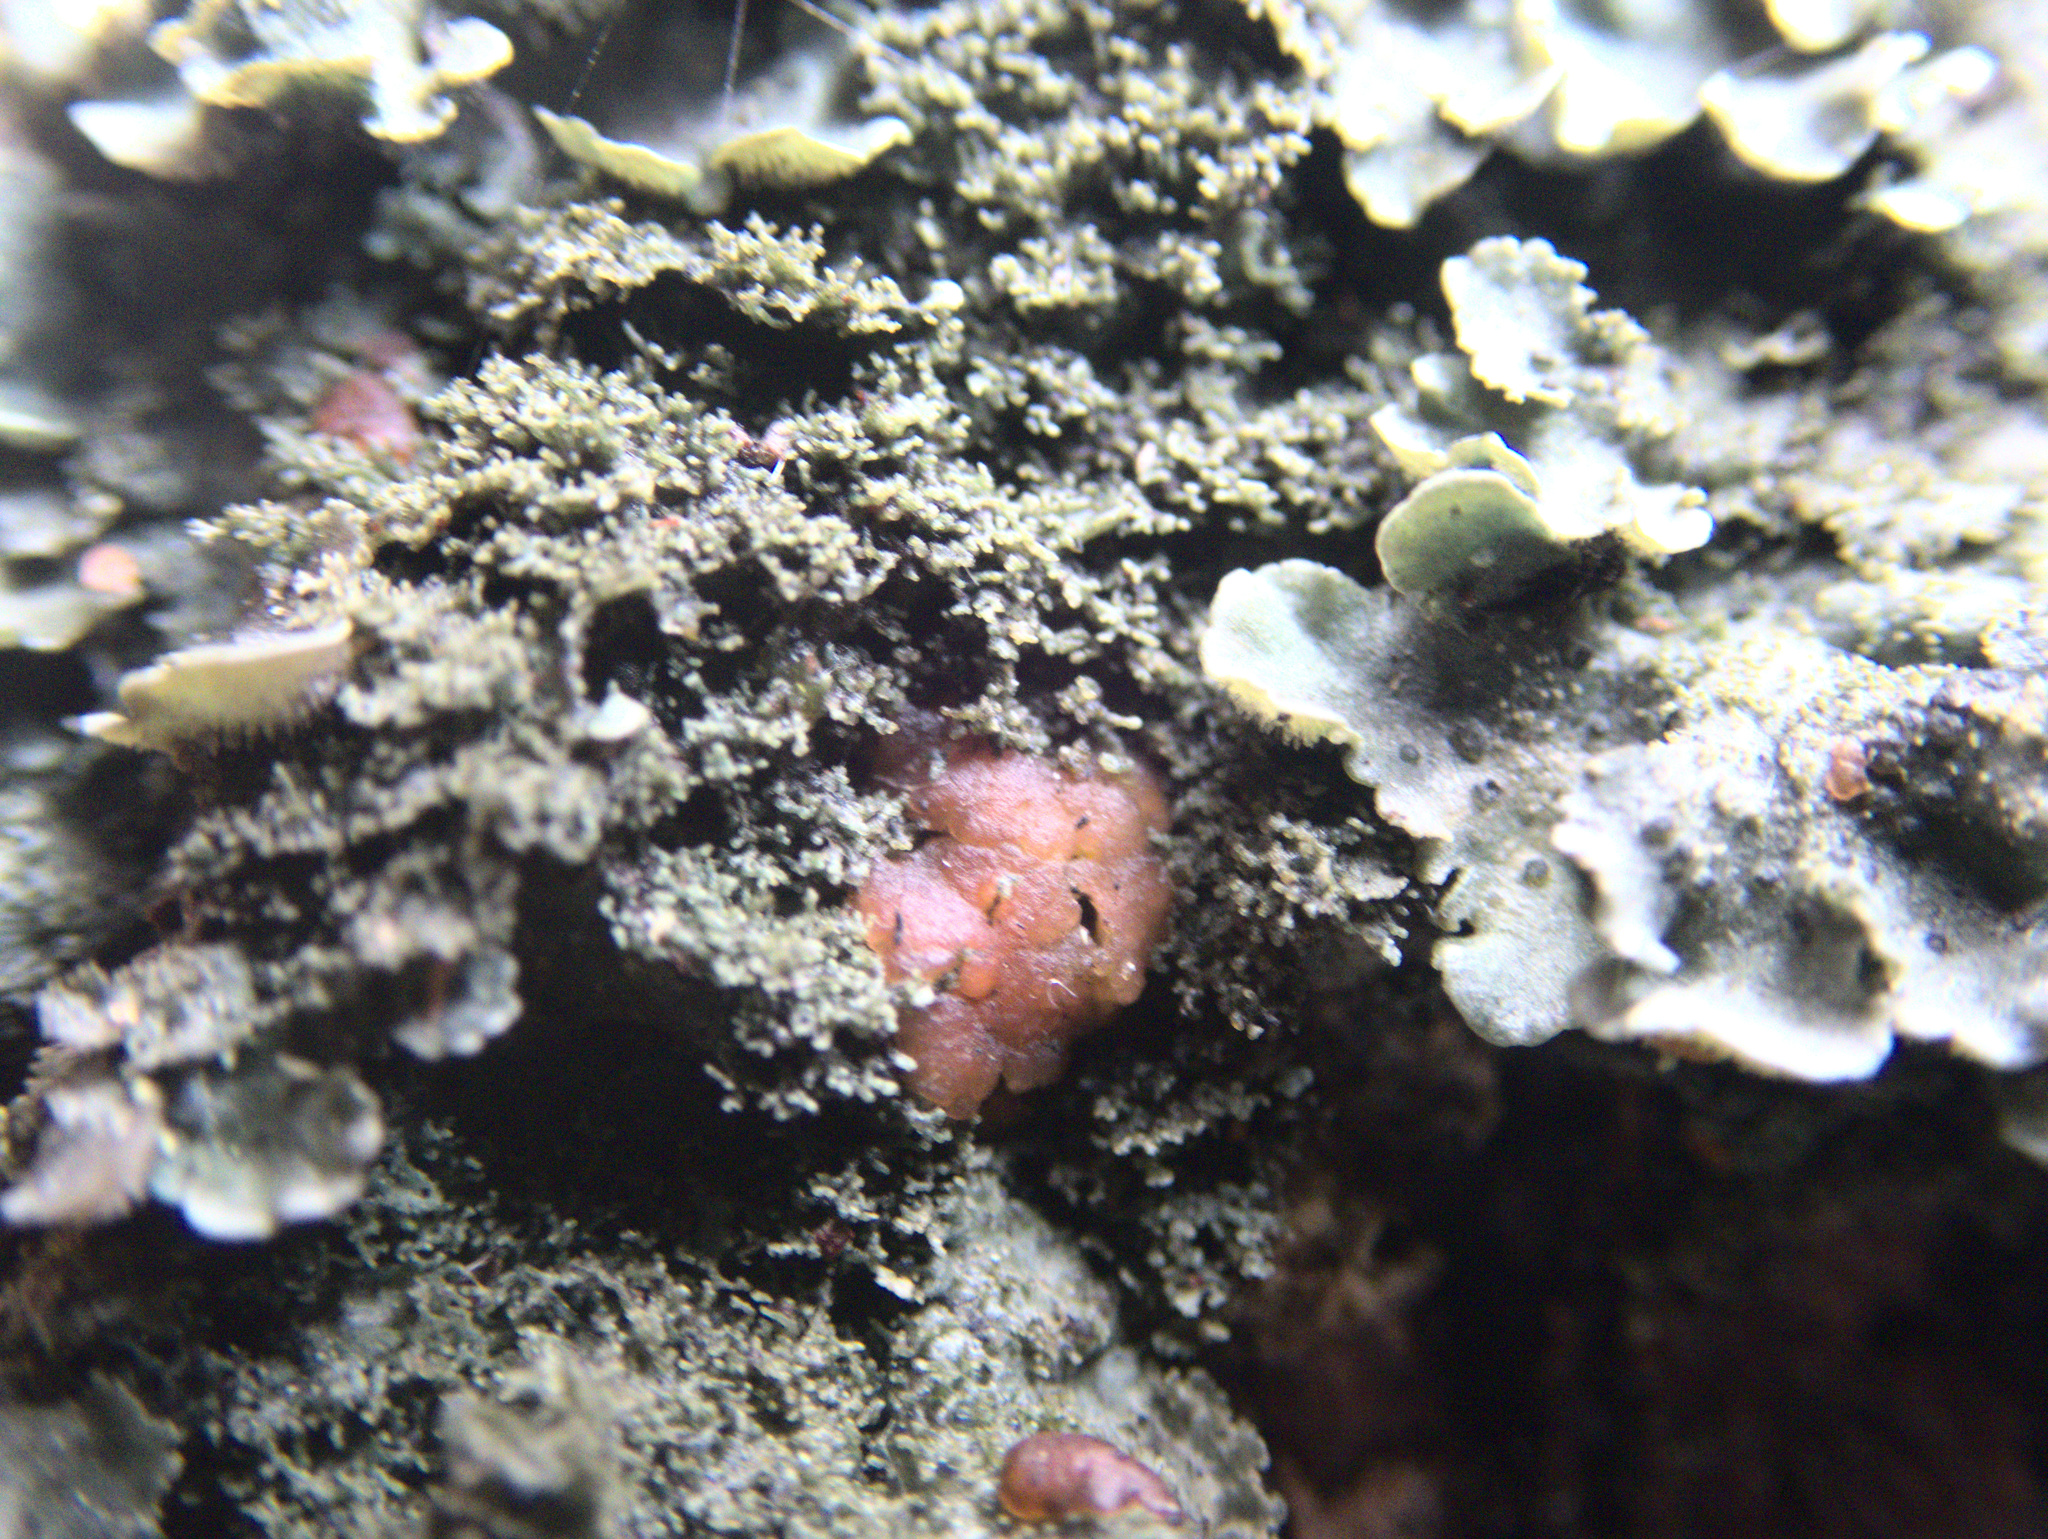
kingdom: Fungi
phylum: Ascomycota
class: Lecanoromycetes
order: Peltigerales
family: Coccocarpiaceae
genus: Coccocarpia
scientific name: Coccocarpia pellita
